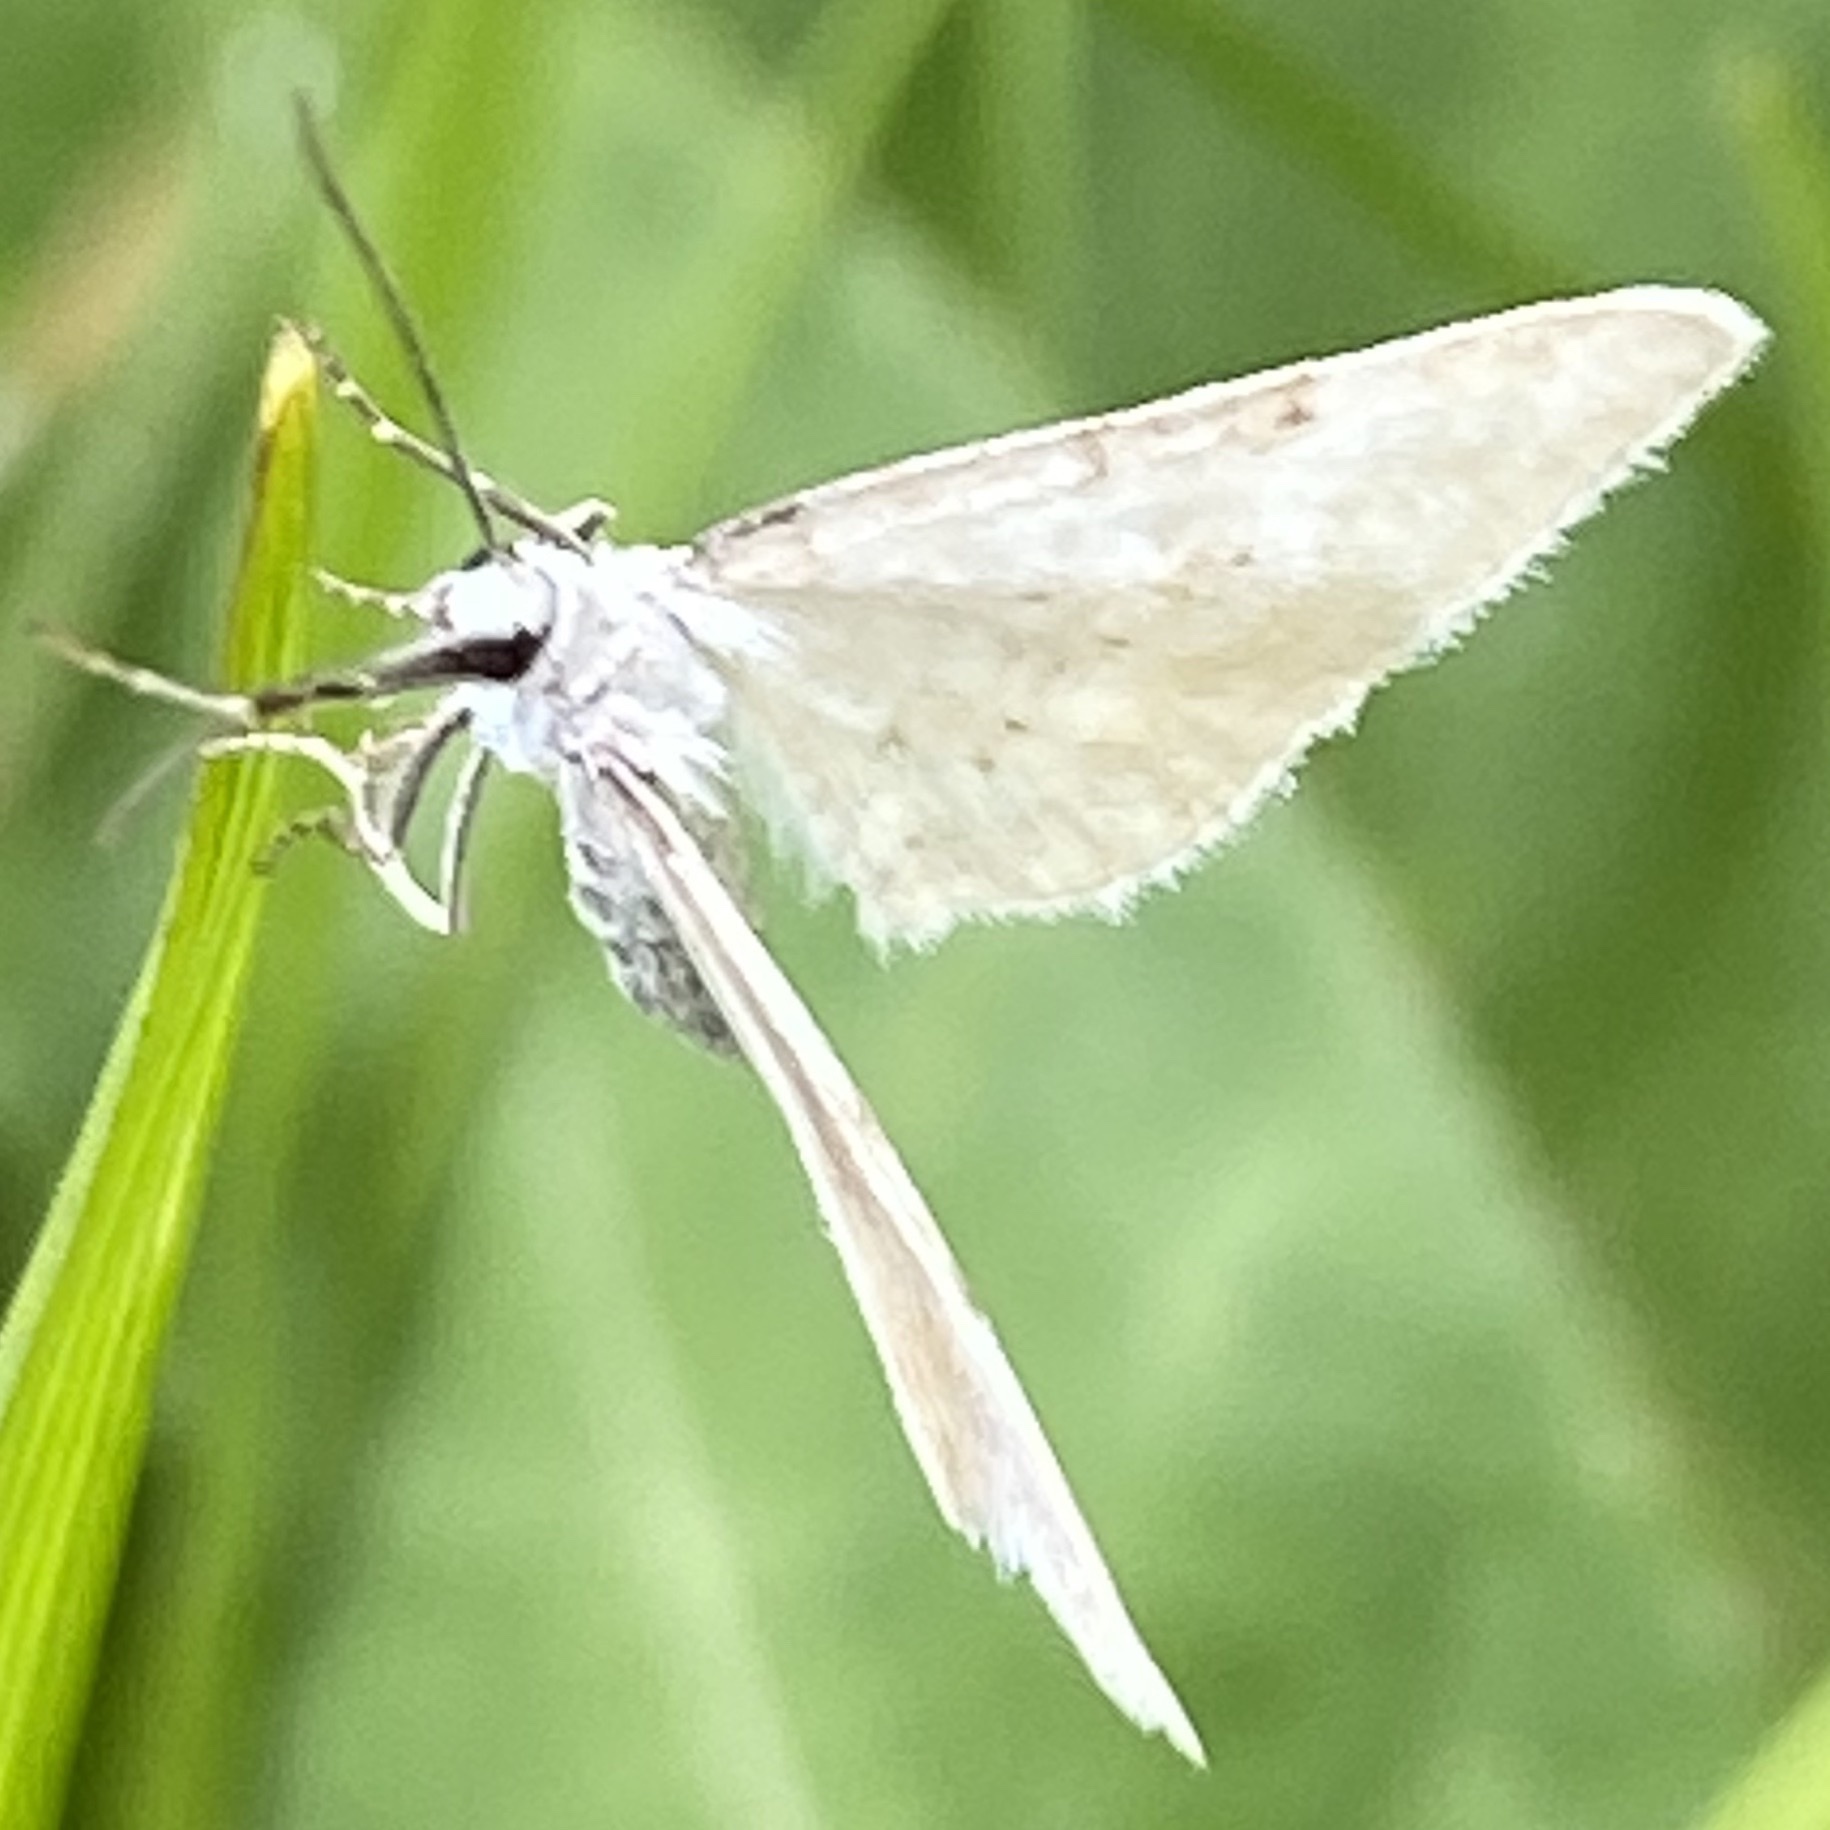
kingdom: Animalia
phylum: Arthropoda
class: Insecta
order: Lepidoptera
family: Geometridae
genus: Perizoma
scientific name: Perizoma albulata
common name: Grass rivulet
